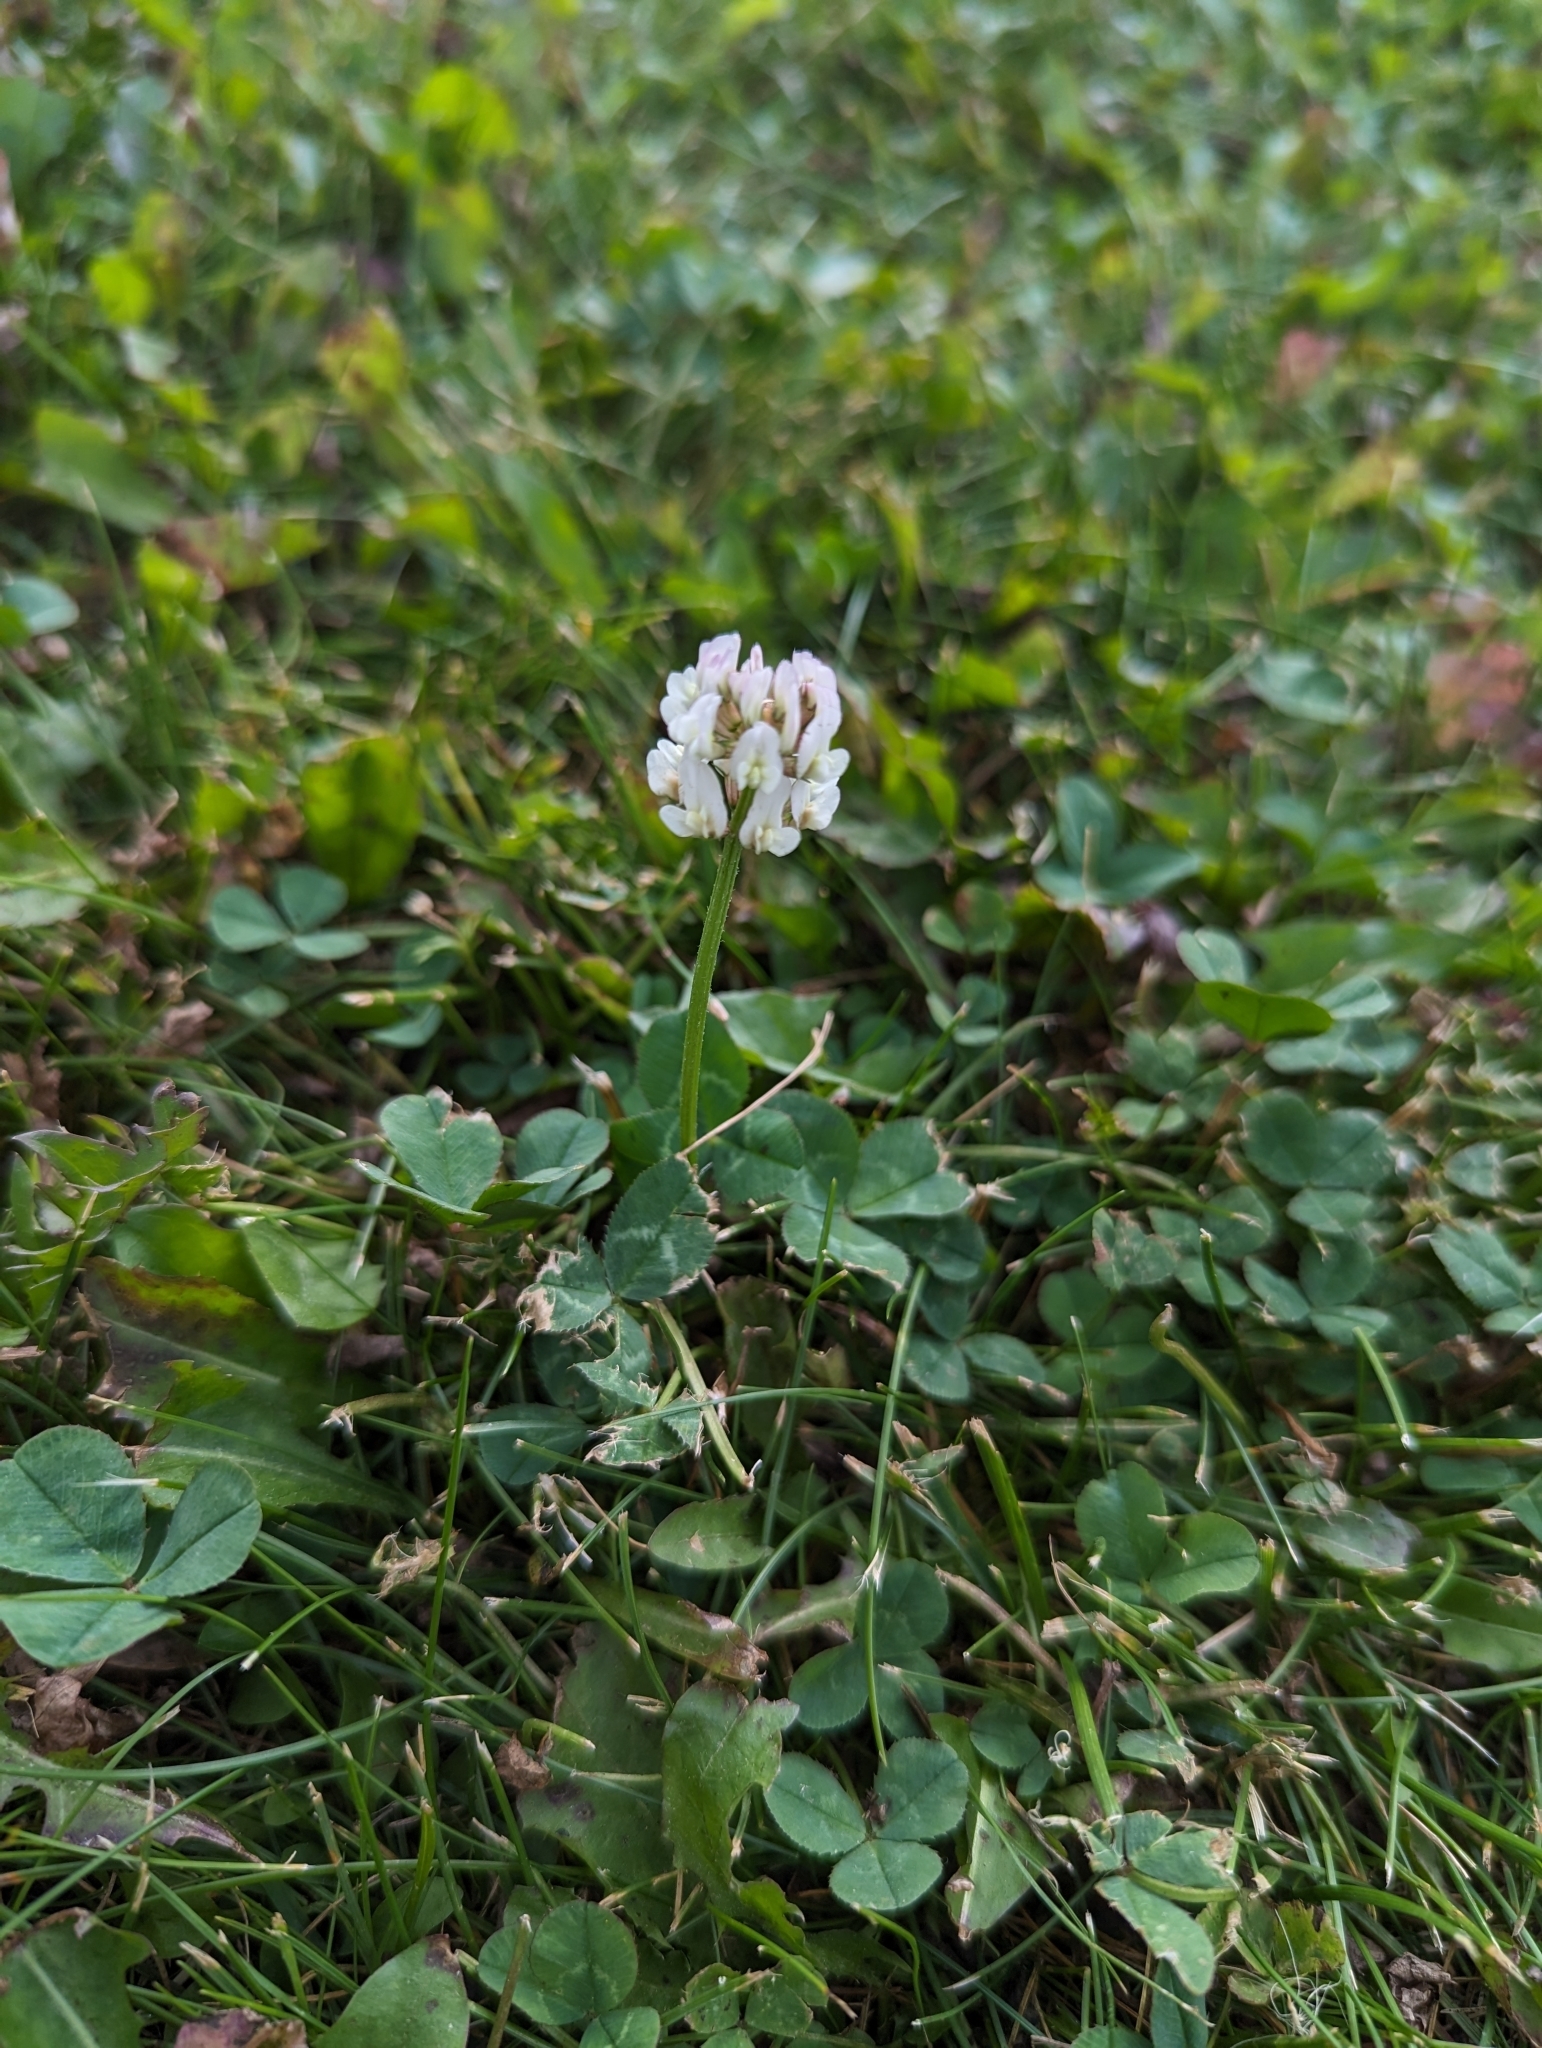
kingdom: Plantae
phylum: Tracheophyta
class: Magnoliopsida
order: Fabales
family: Fabaceae
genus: Trifolium
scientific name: Trifolium repens
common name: White clover
